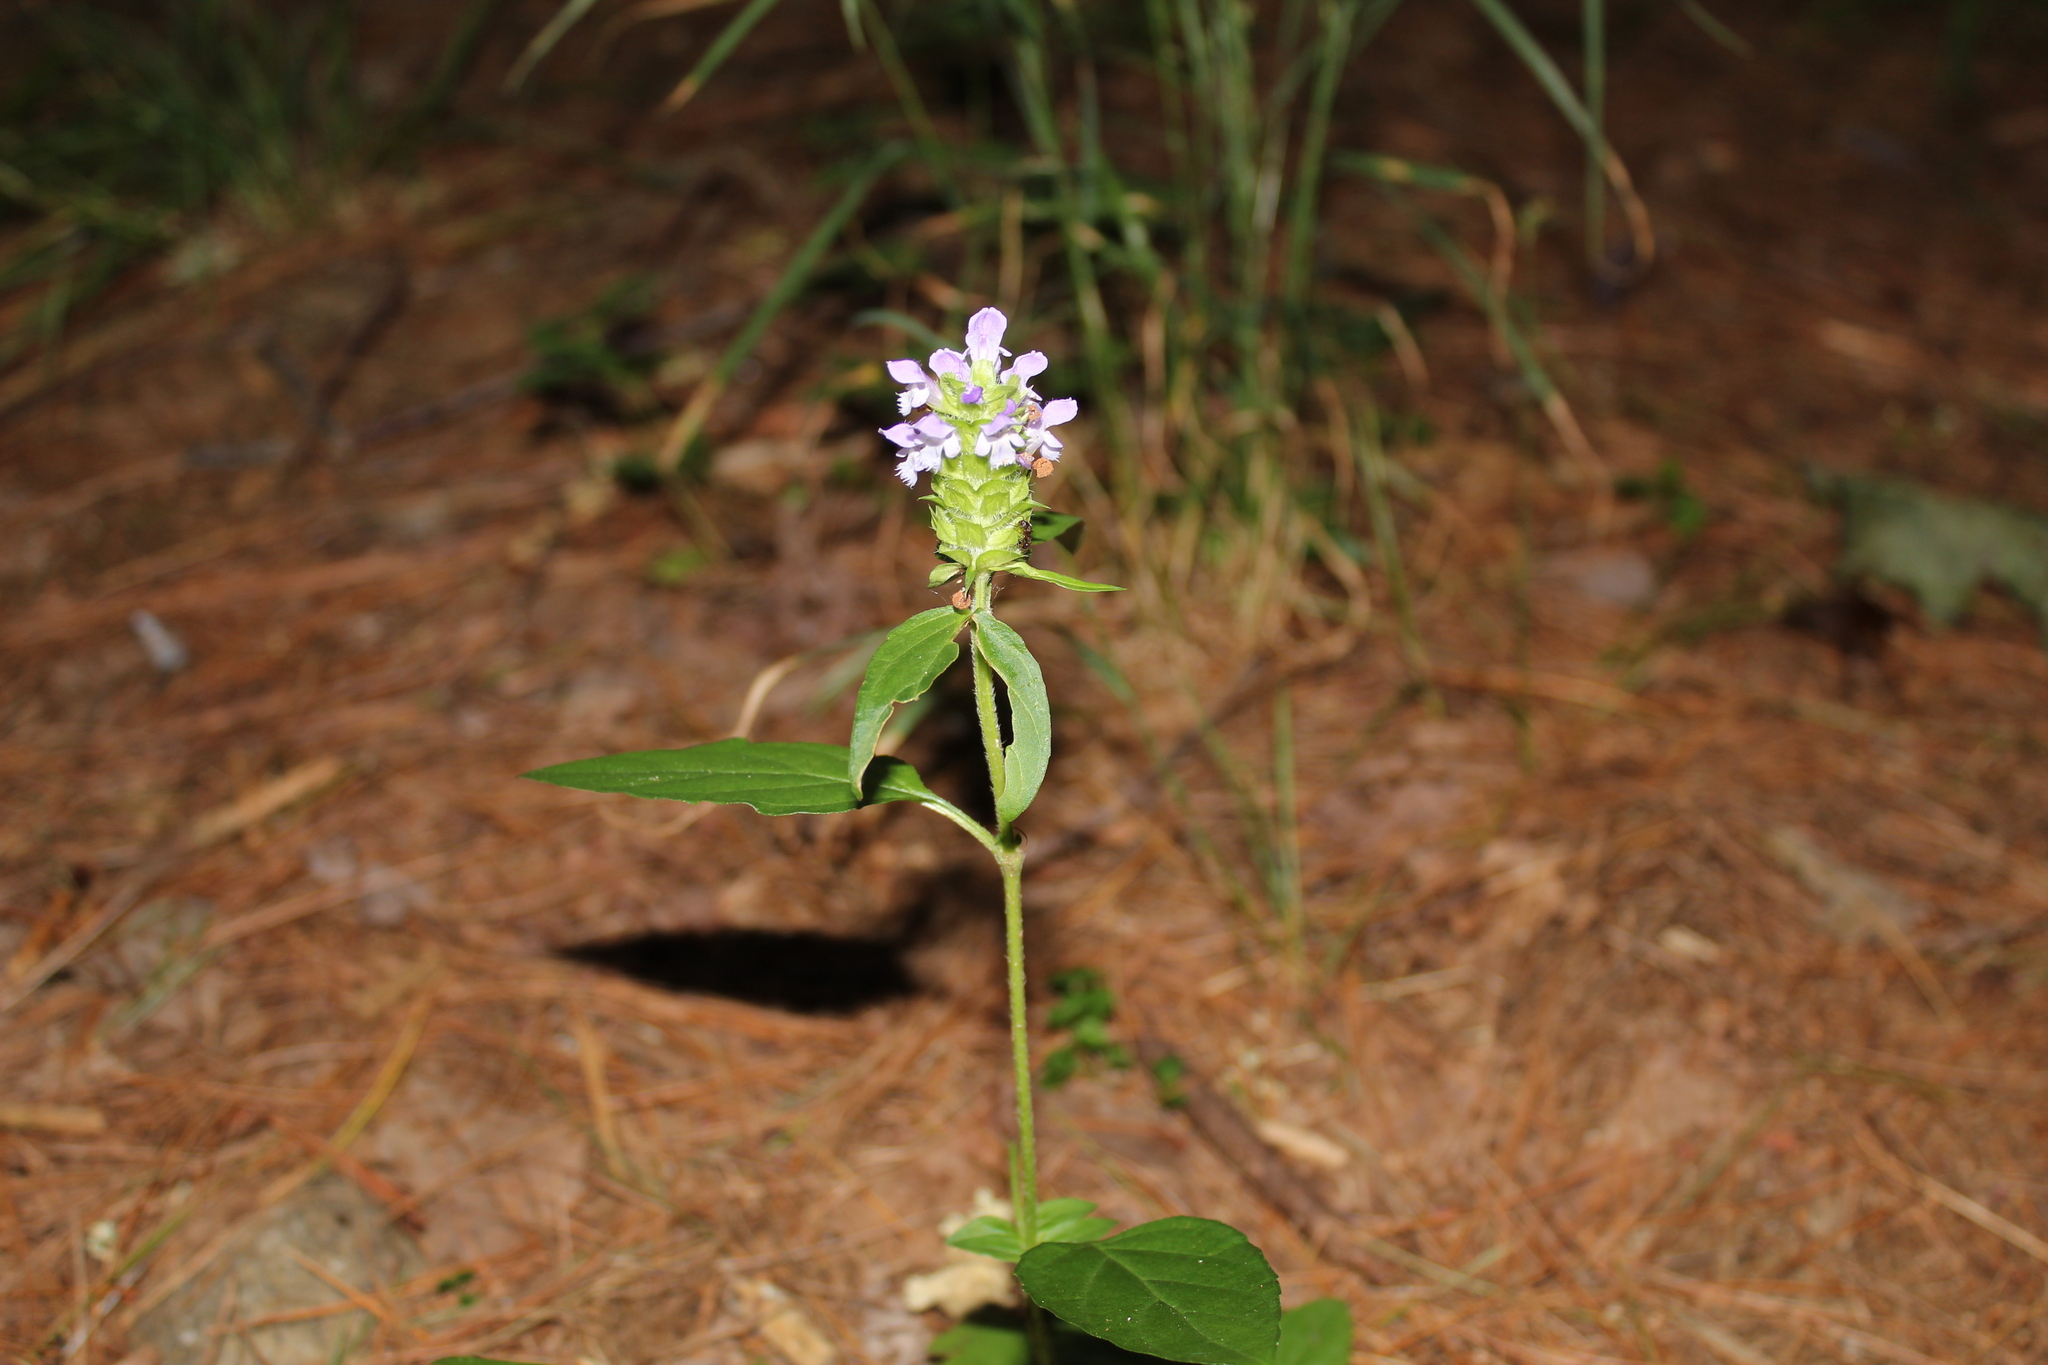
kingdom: Plantae
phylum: Tracheophyta
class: Magnoliopsida
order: Lamiales
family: Lamiaceae
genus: Prunella
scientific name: Prunella vulgaris
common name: Heal-all
